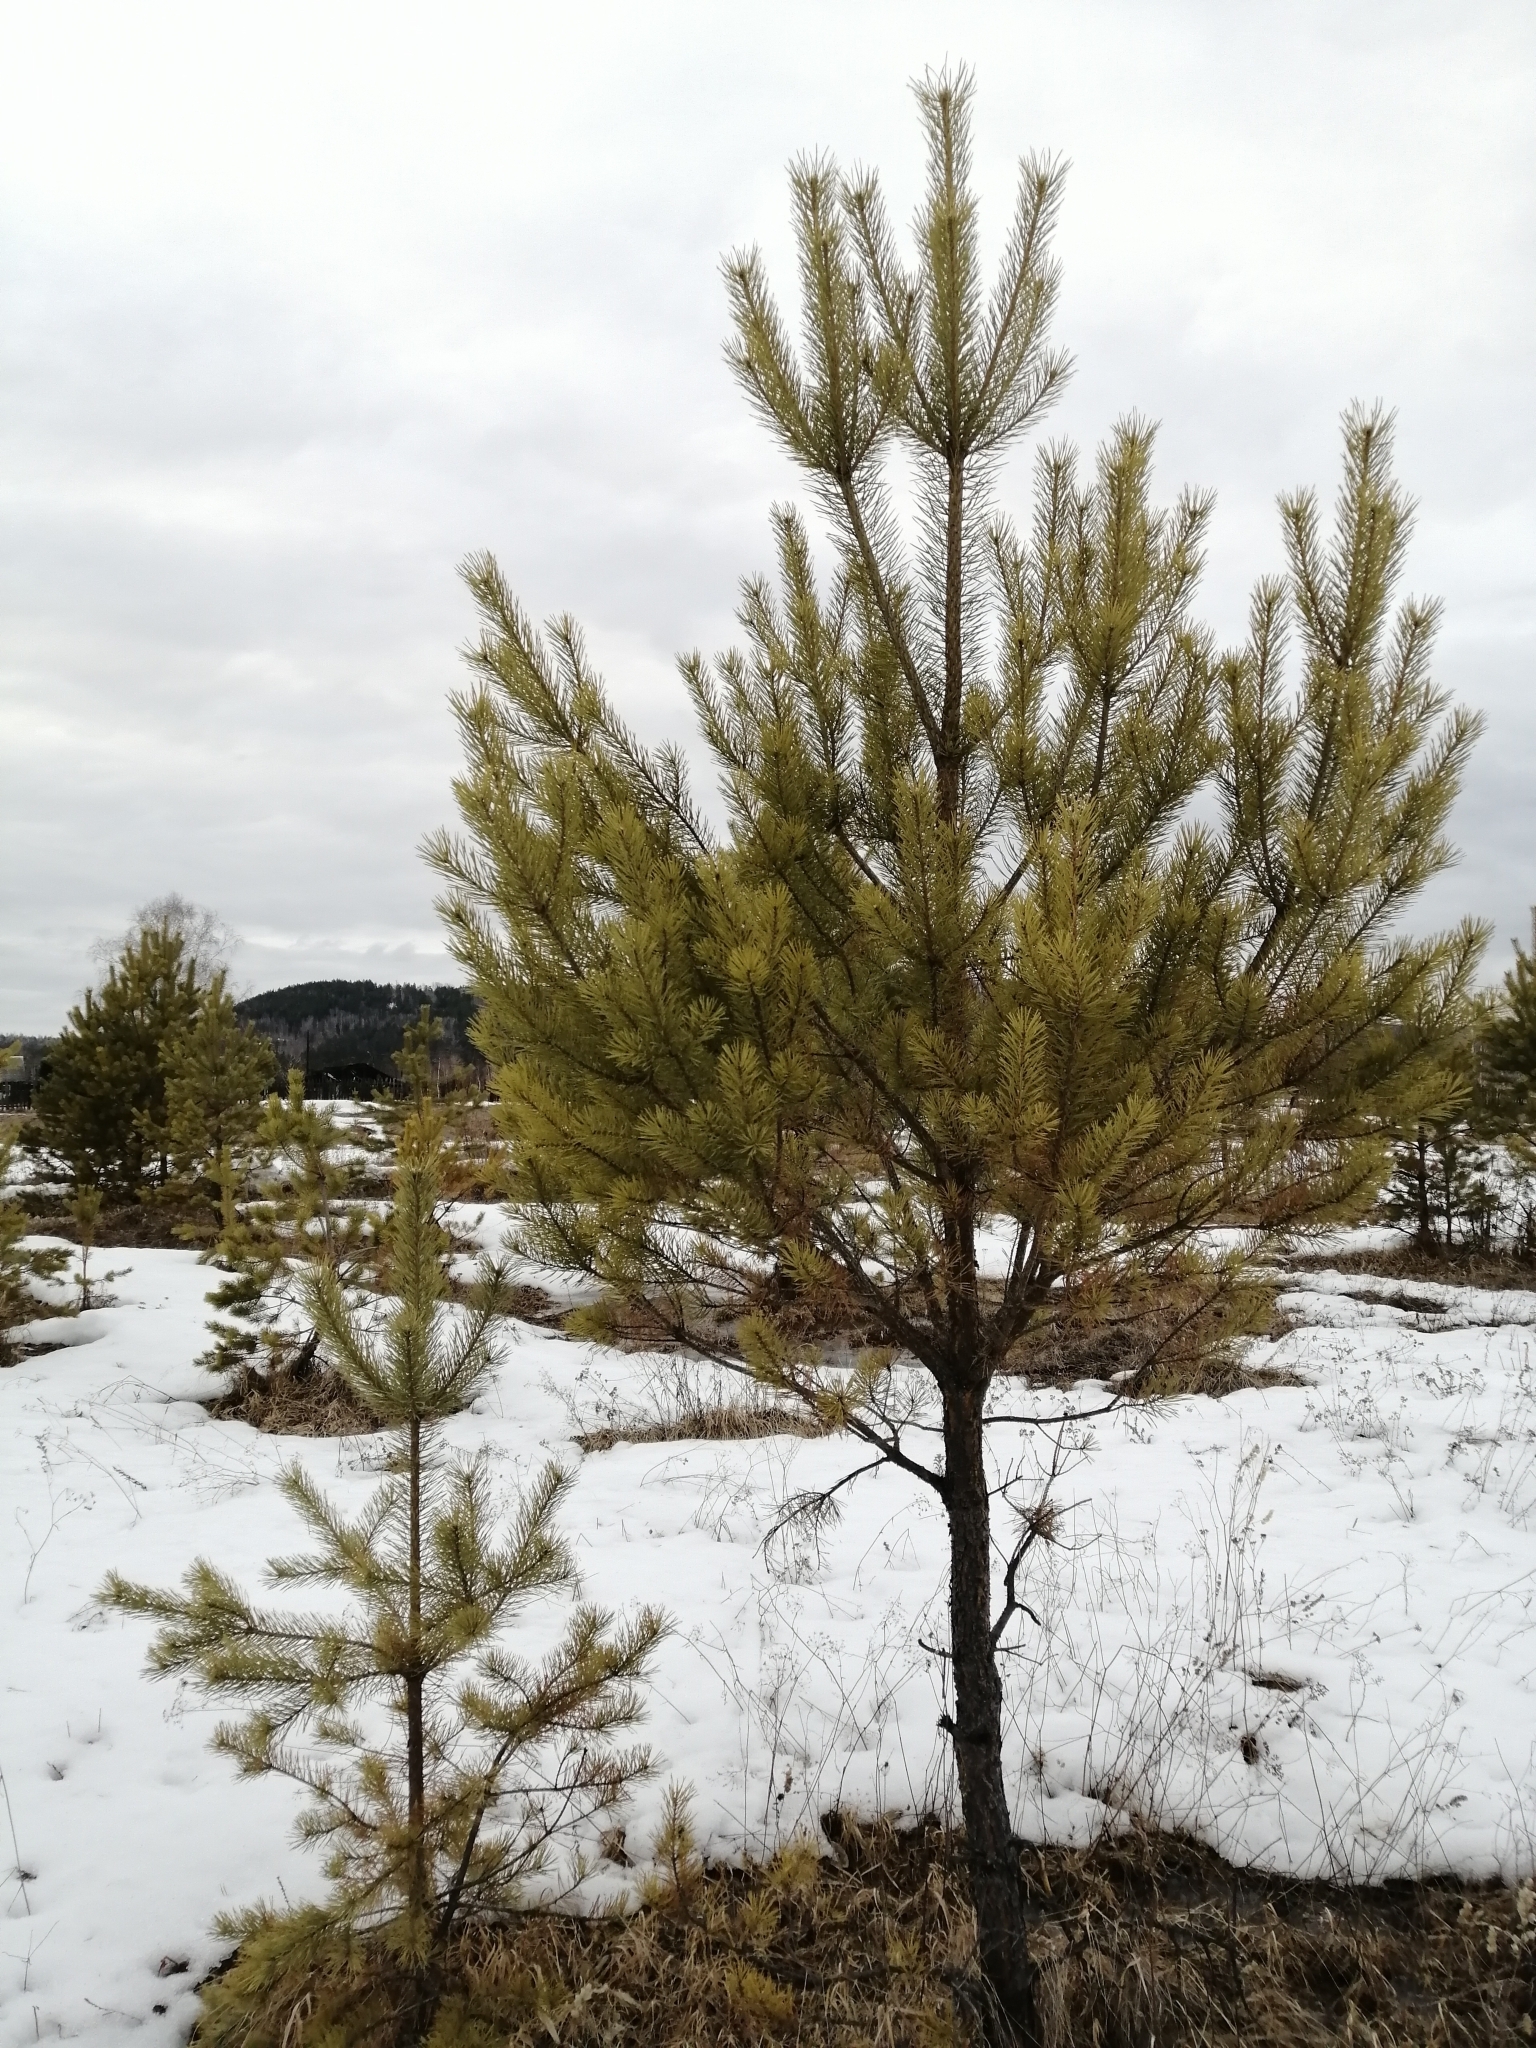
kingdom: Plantae
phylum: Tracheophyta
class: Pinopsida
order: Pinales
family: Pinaceae
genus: Pinus
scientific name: Pinus sylvestris
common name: Scots pine
